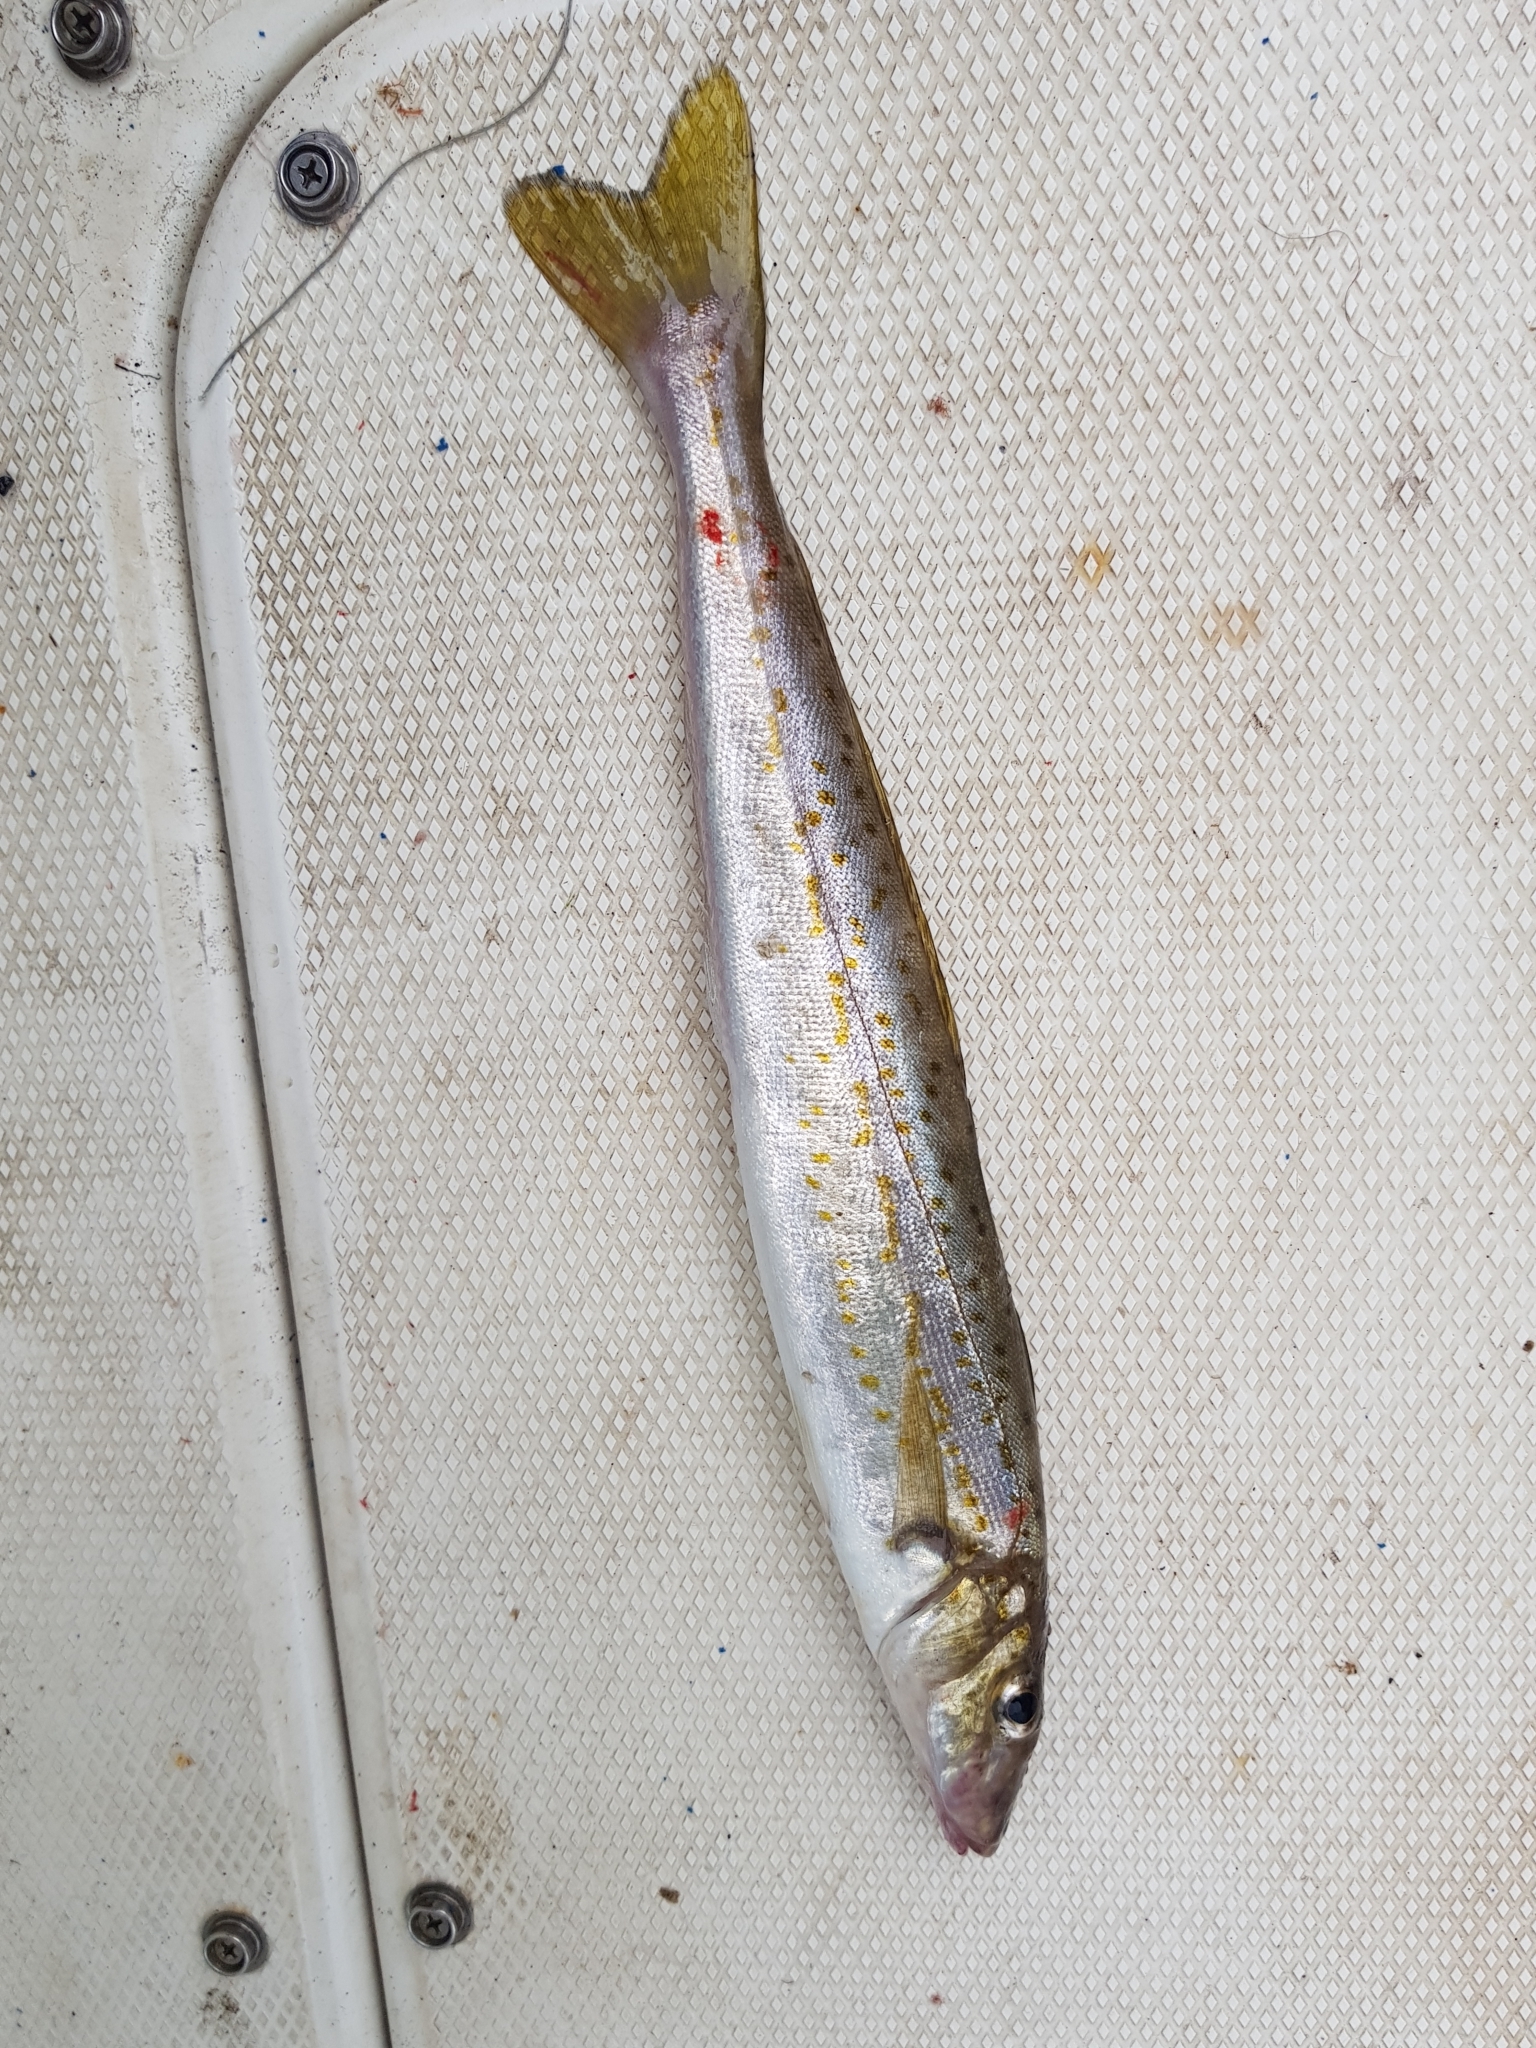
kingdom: Animalia
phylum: Chordata
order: Perciformes
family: Sillaginidae
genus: Sillaginodes
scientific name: Sillaginodes punctatus
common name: King george whiting
